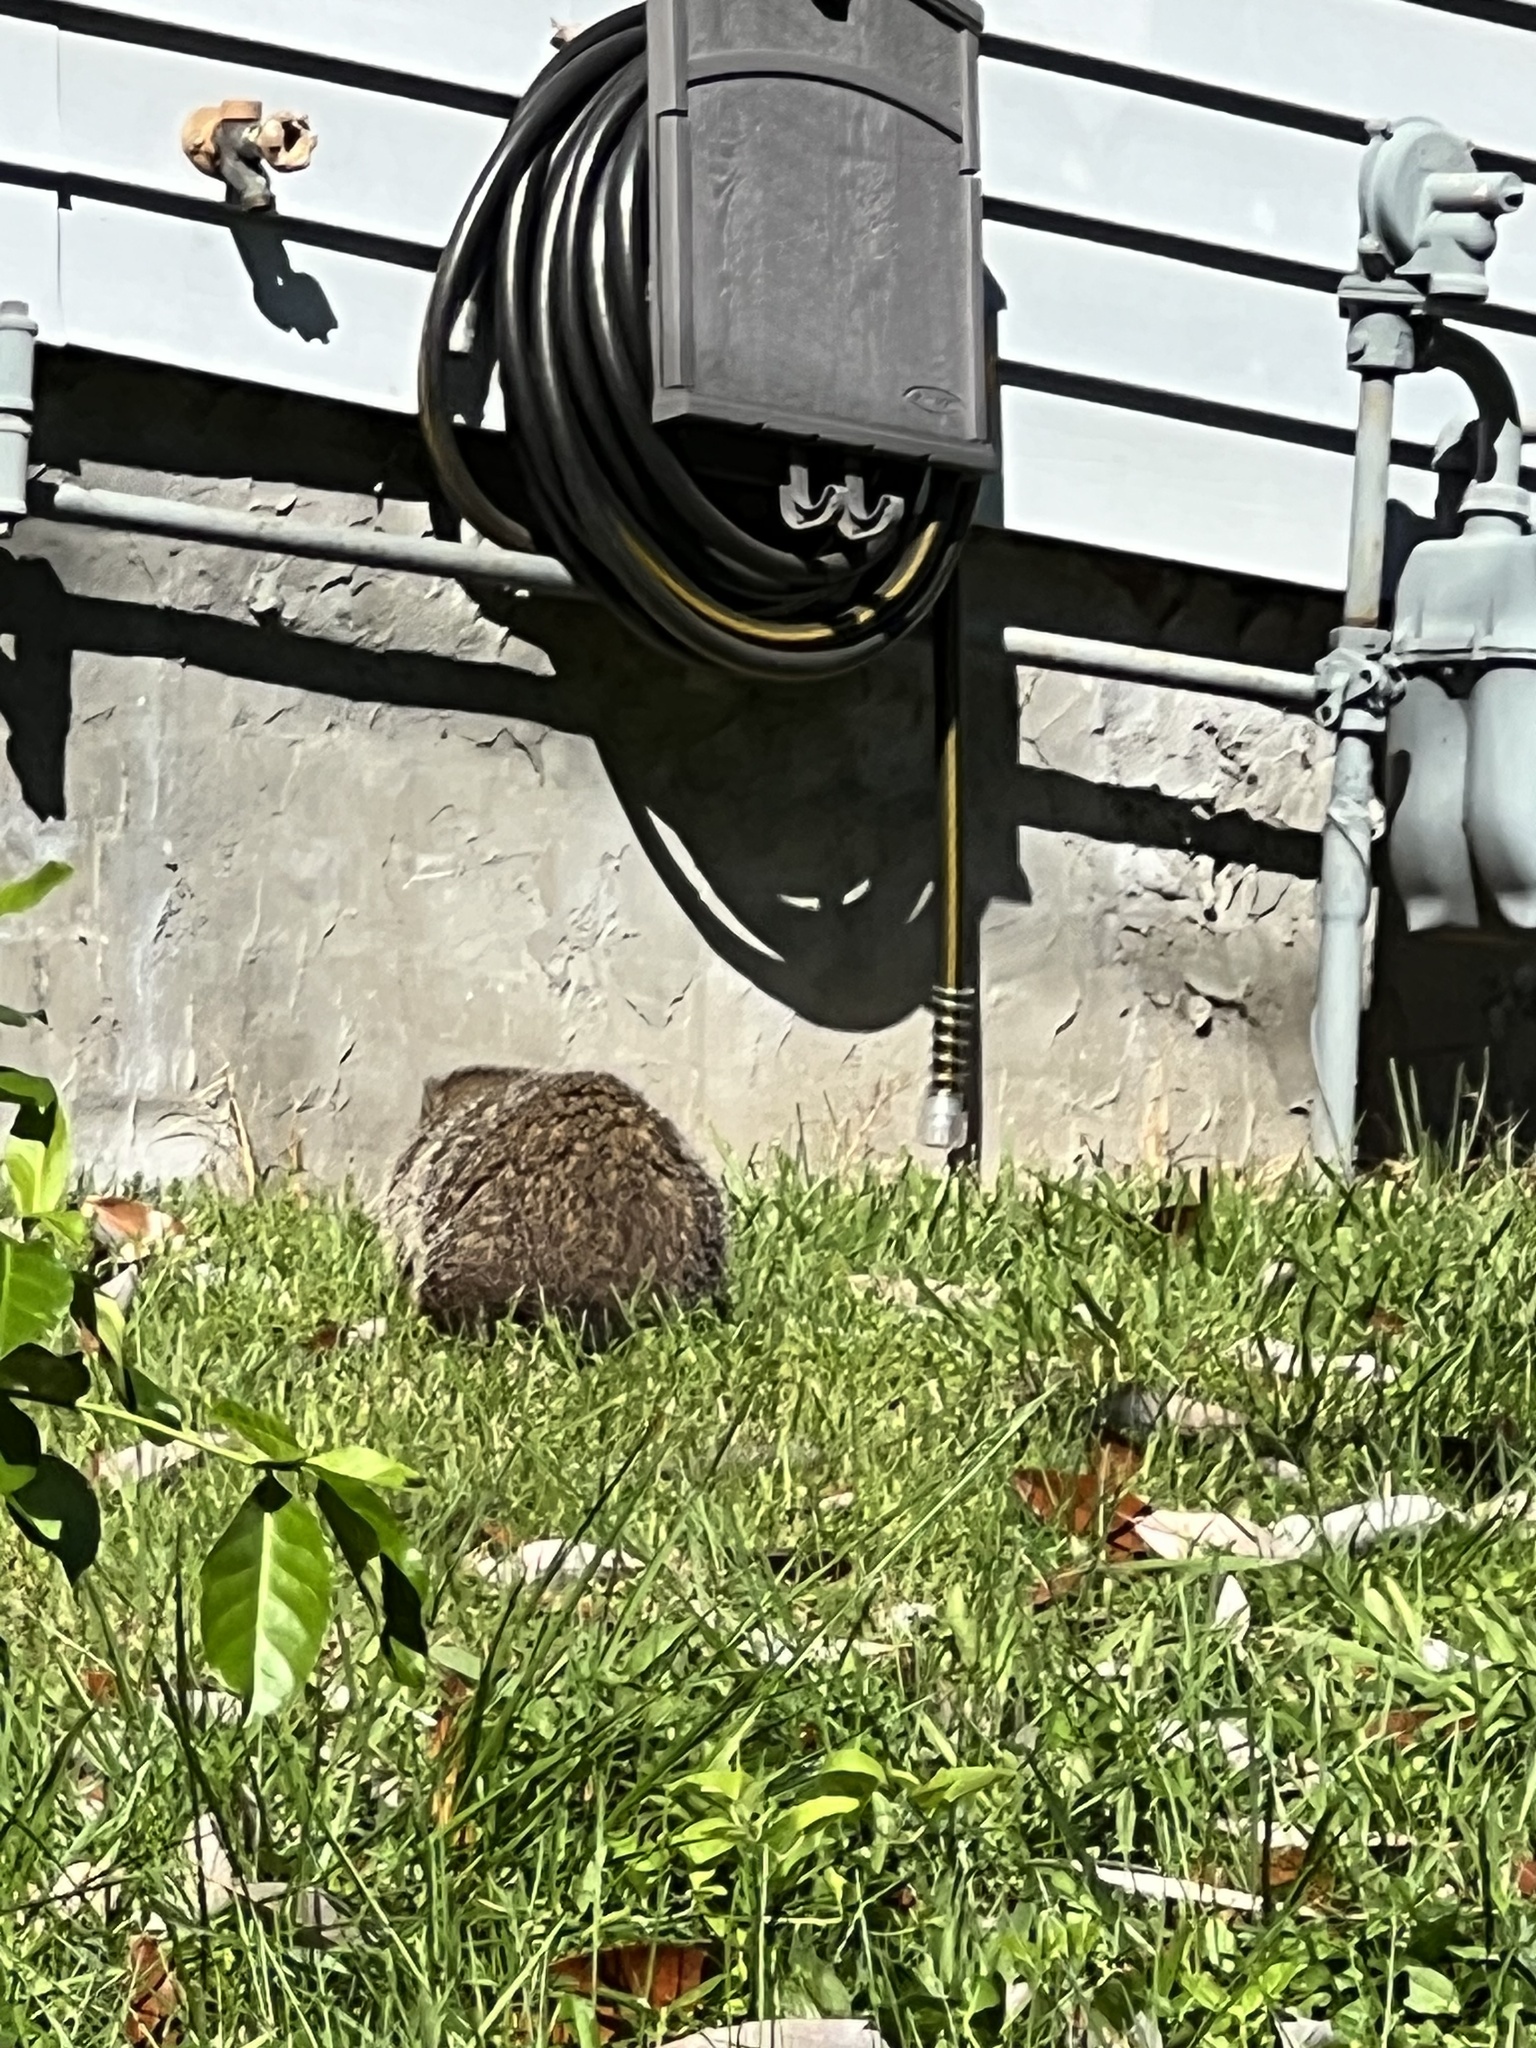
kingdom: Animalia
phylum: Chordata
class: Mammalia
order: Rodentia
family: Sciuridae
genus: Marmota
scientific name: Marmota monax
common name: Groundhog
